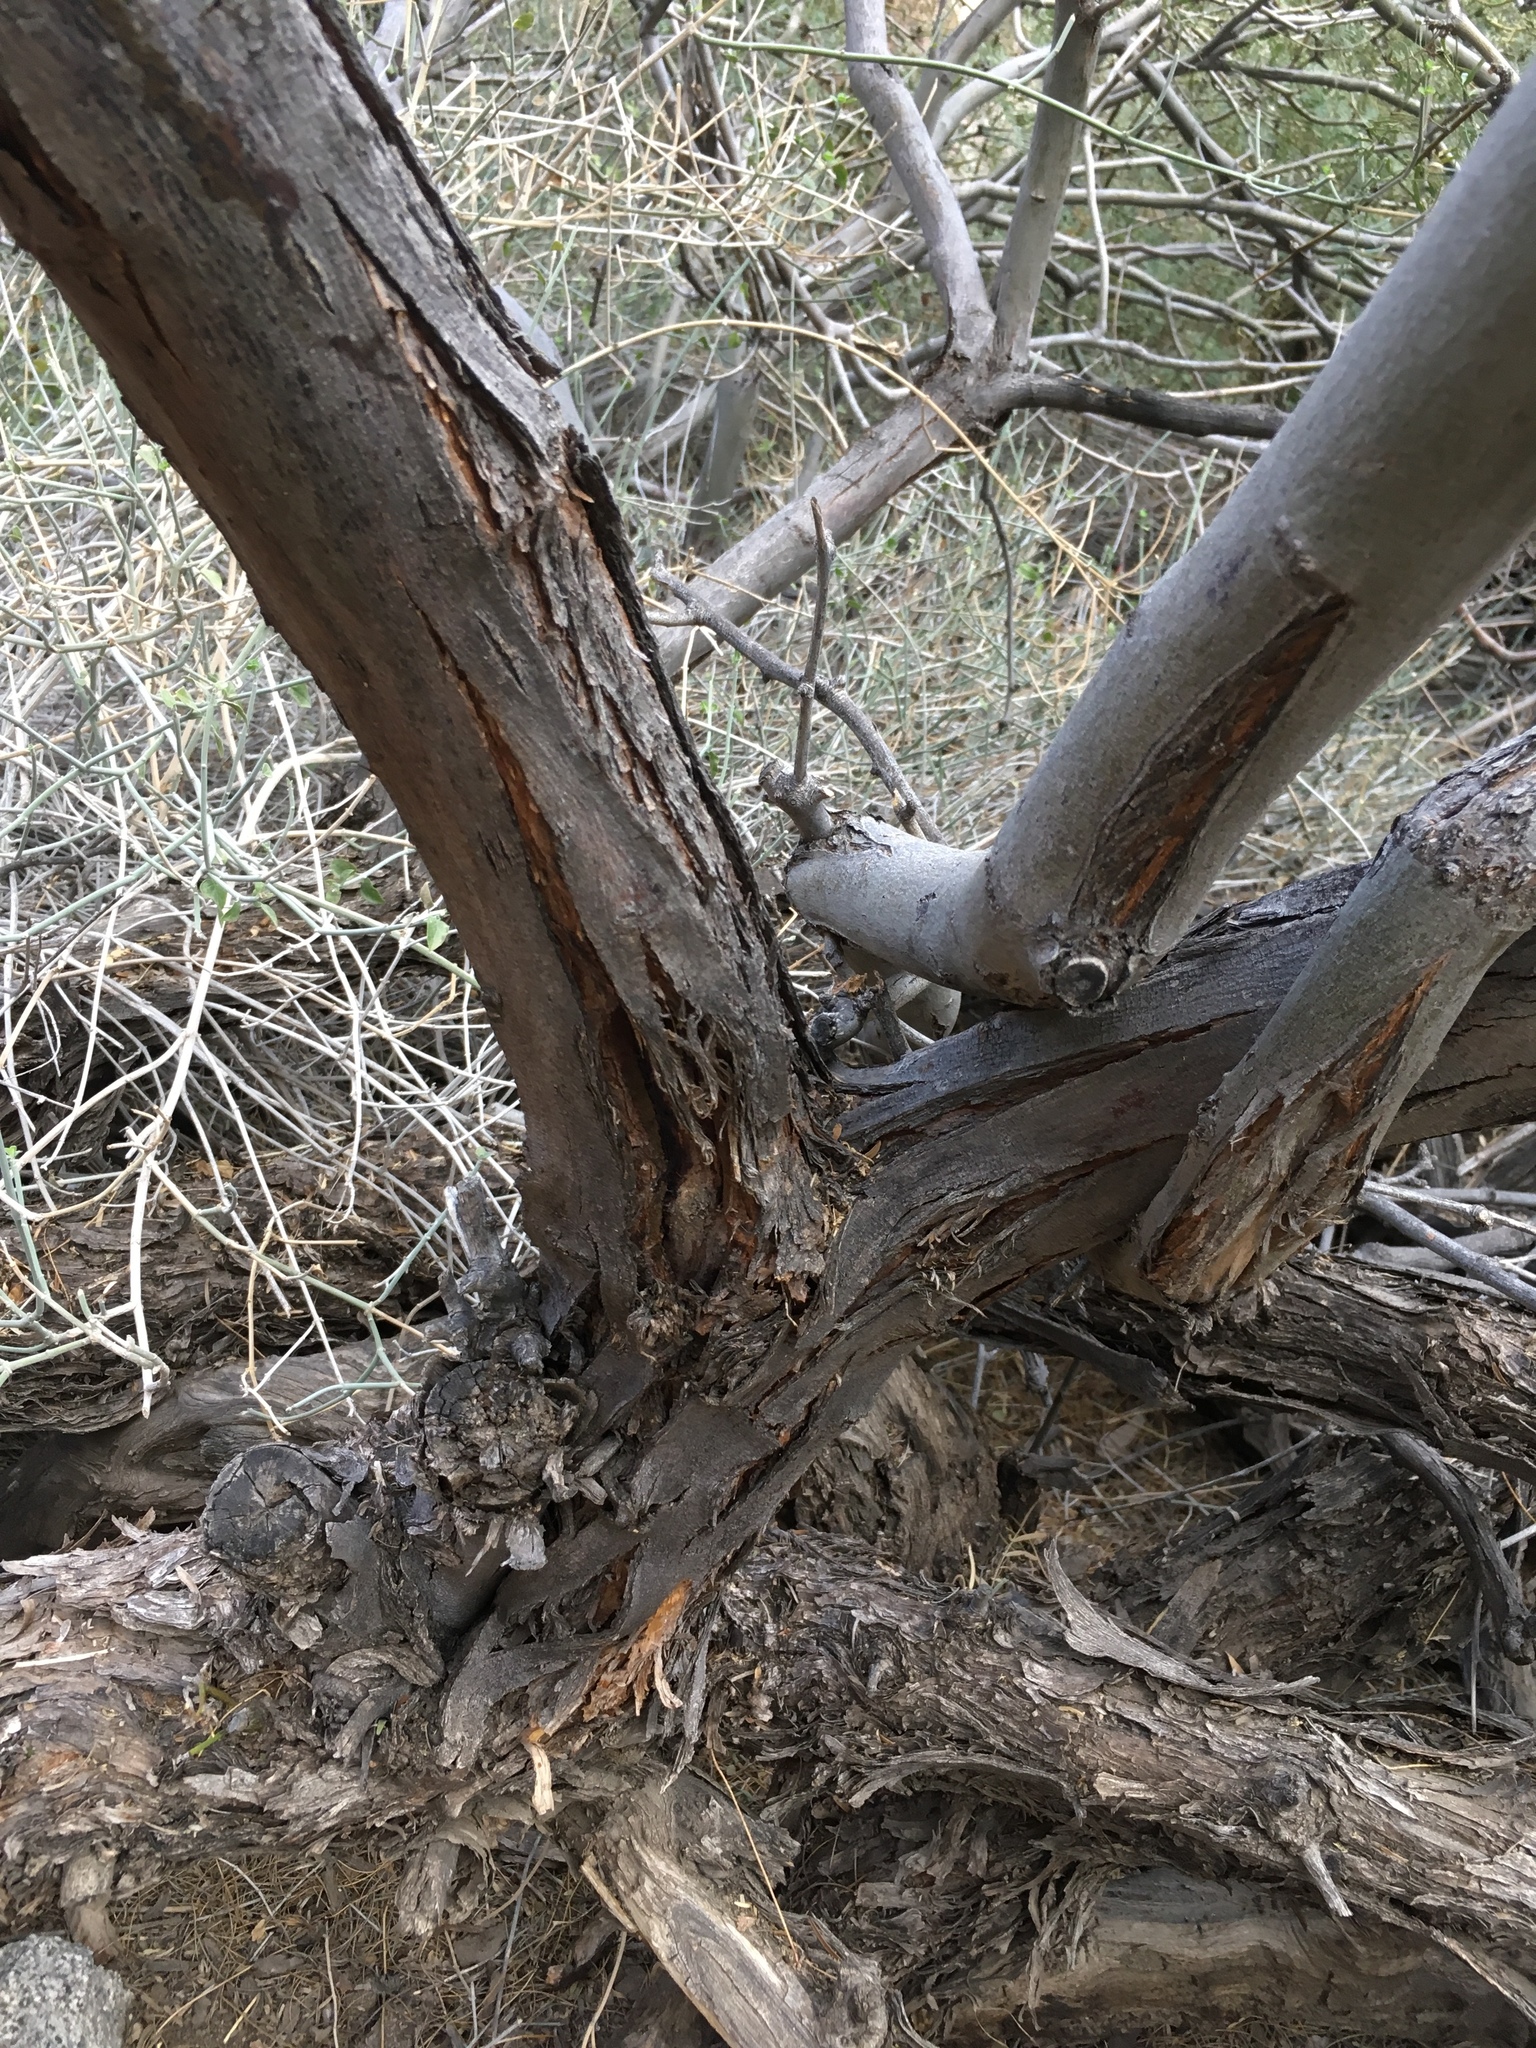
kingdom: Plantae
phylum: Tracheophyta
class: Magnoliopsida
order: Fabales
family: Fabaceae
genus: Prosopis
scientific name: Prosopis pubescens
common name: Screw-bean
